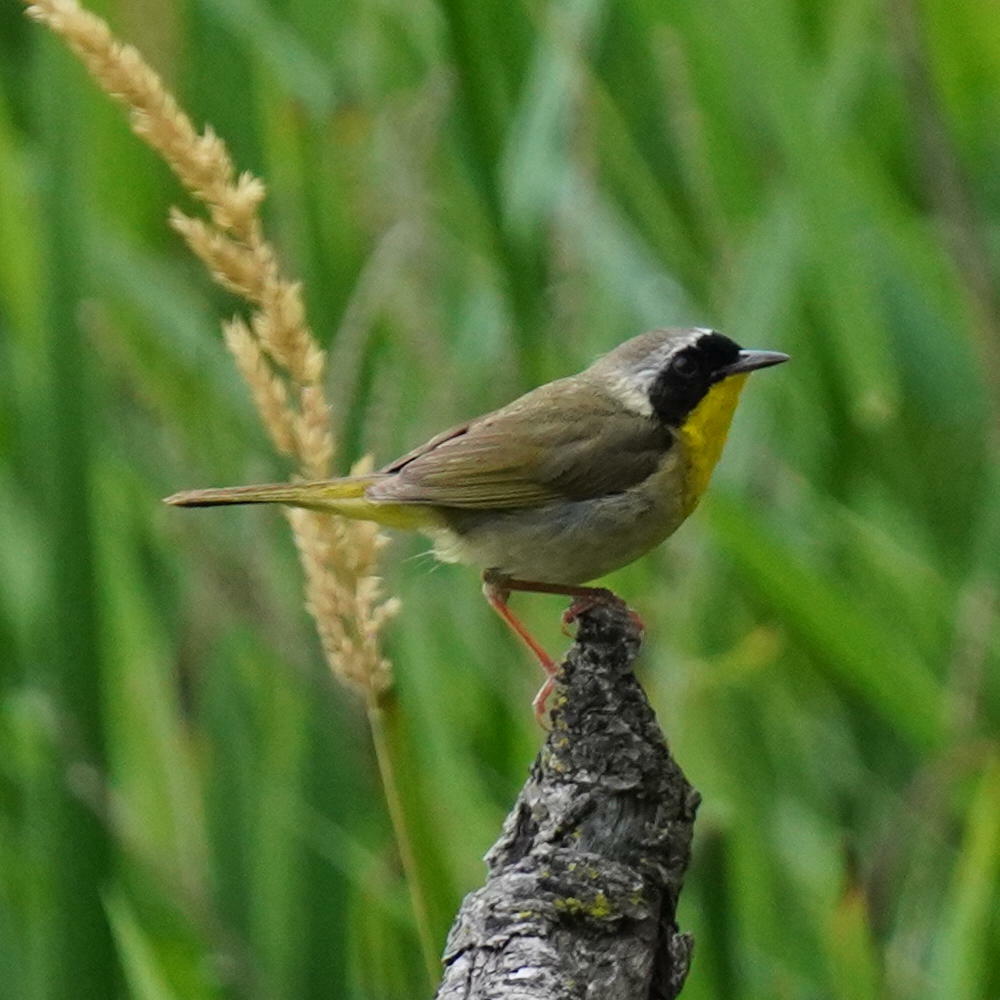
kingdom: Animalia
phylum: Chordata
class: Aves
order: Passeriformes
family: Parulidae
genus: Geothlypis
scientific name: Geothlypis trichas
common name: Common yellowthroat
